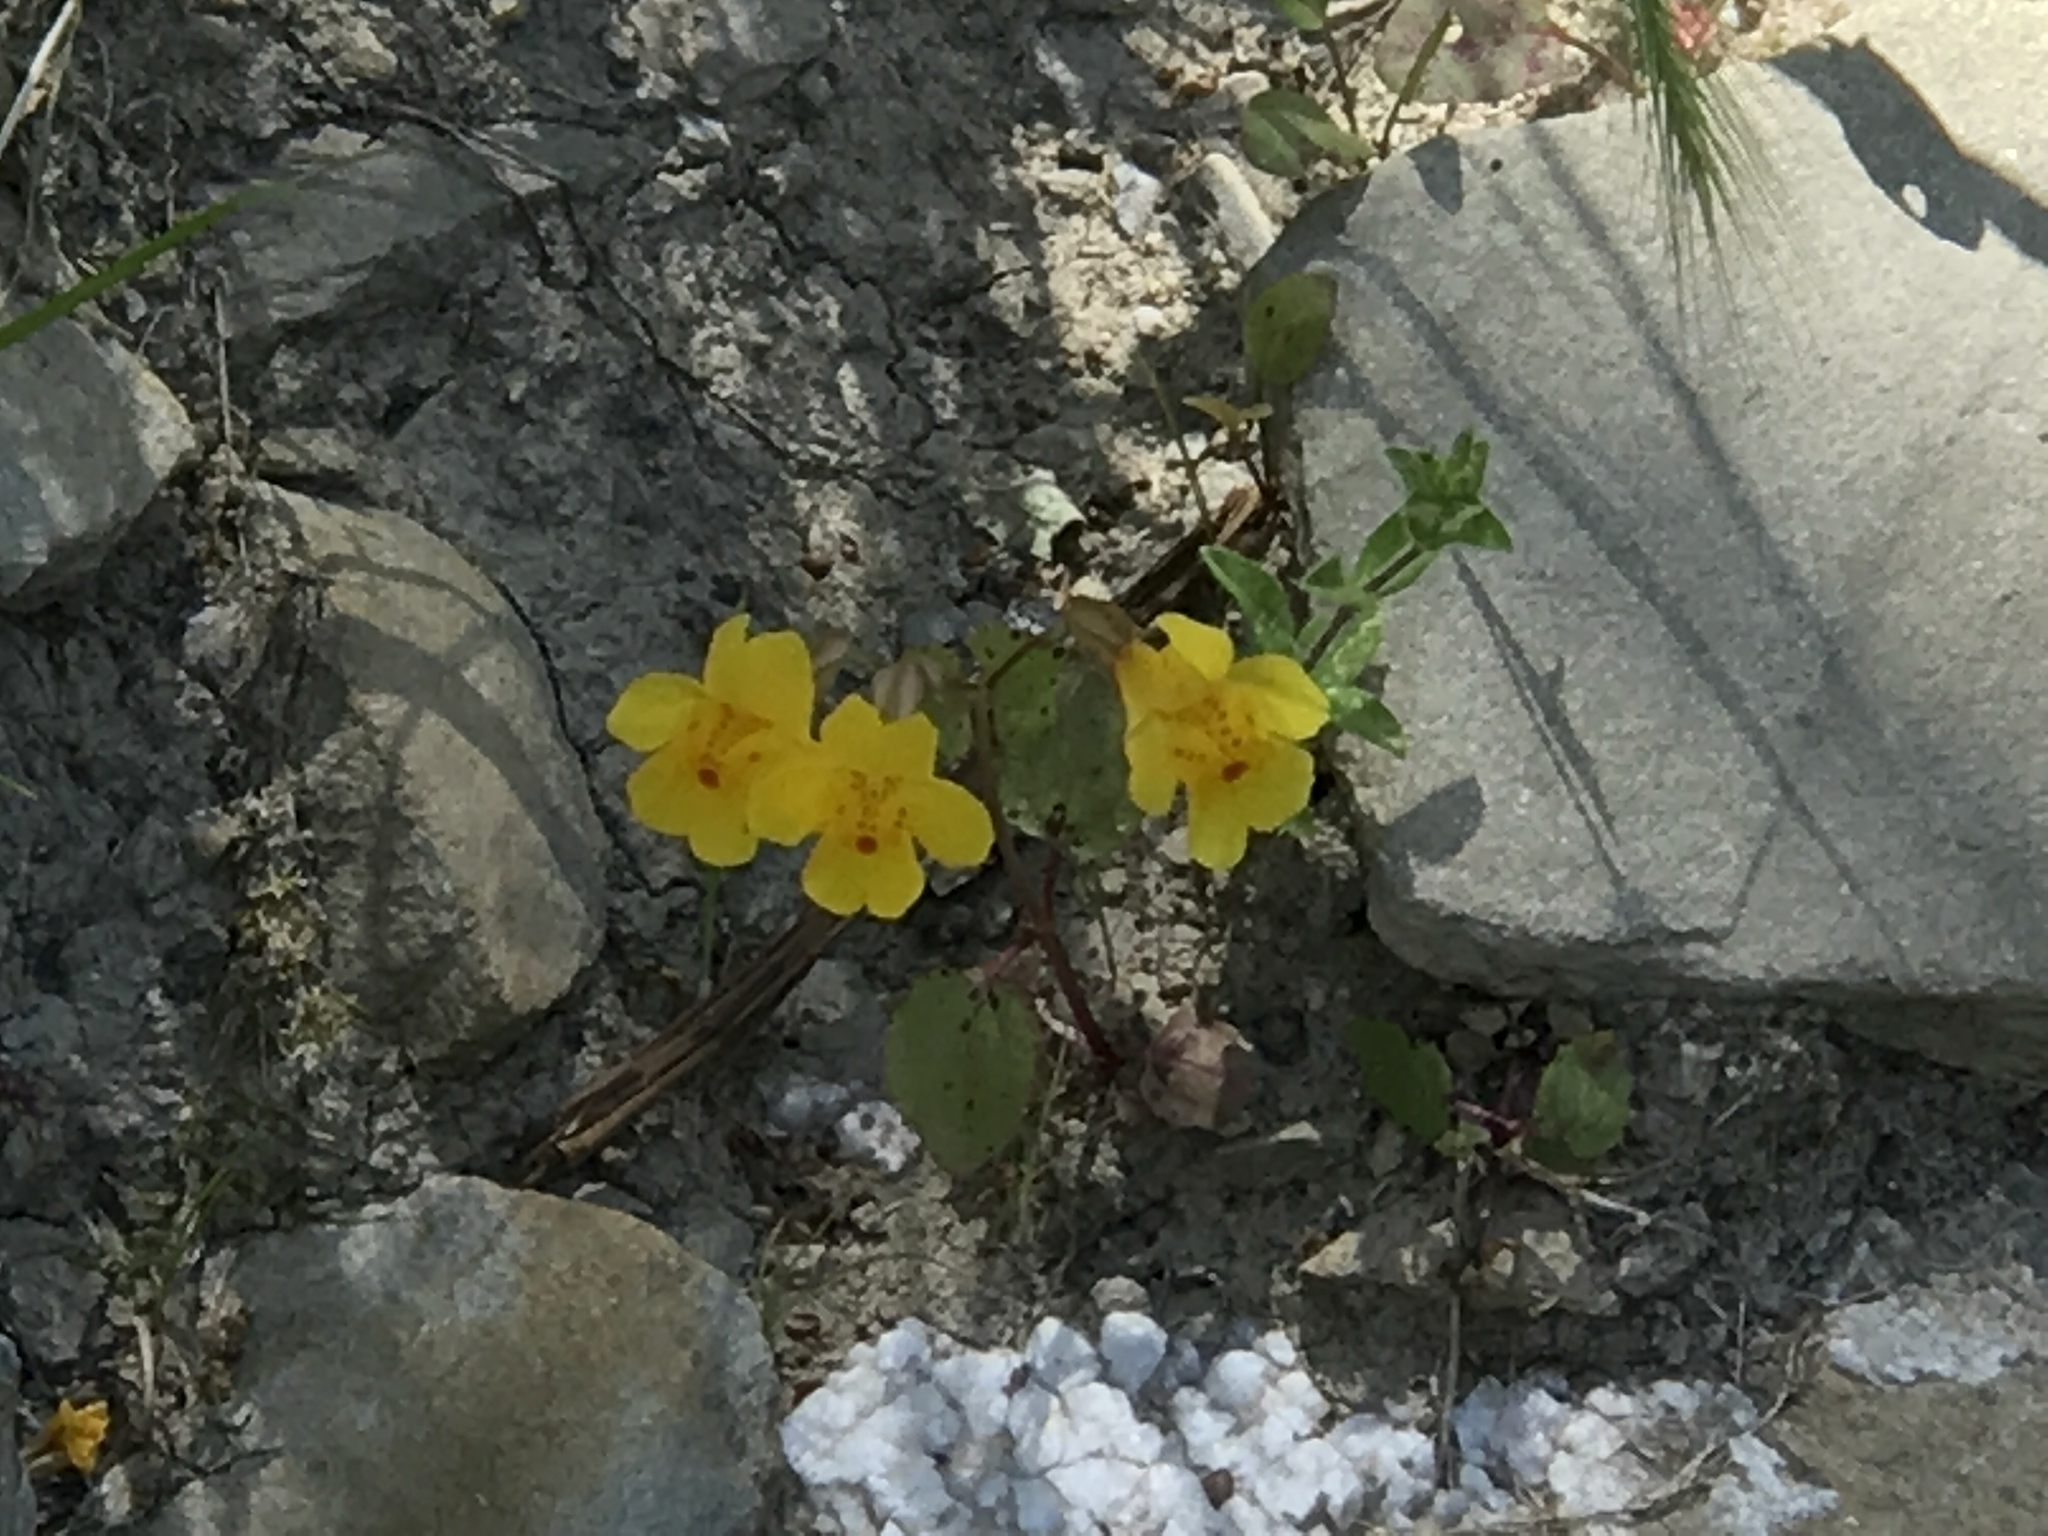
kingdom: Plantae
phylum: Tracheophyta
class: Magnoliopsida
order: Lamiales
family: Phrymaceae
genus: Erythranthe
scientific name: Erythranthe guttata
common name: Monkeyflower
